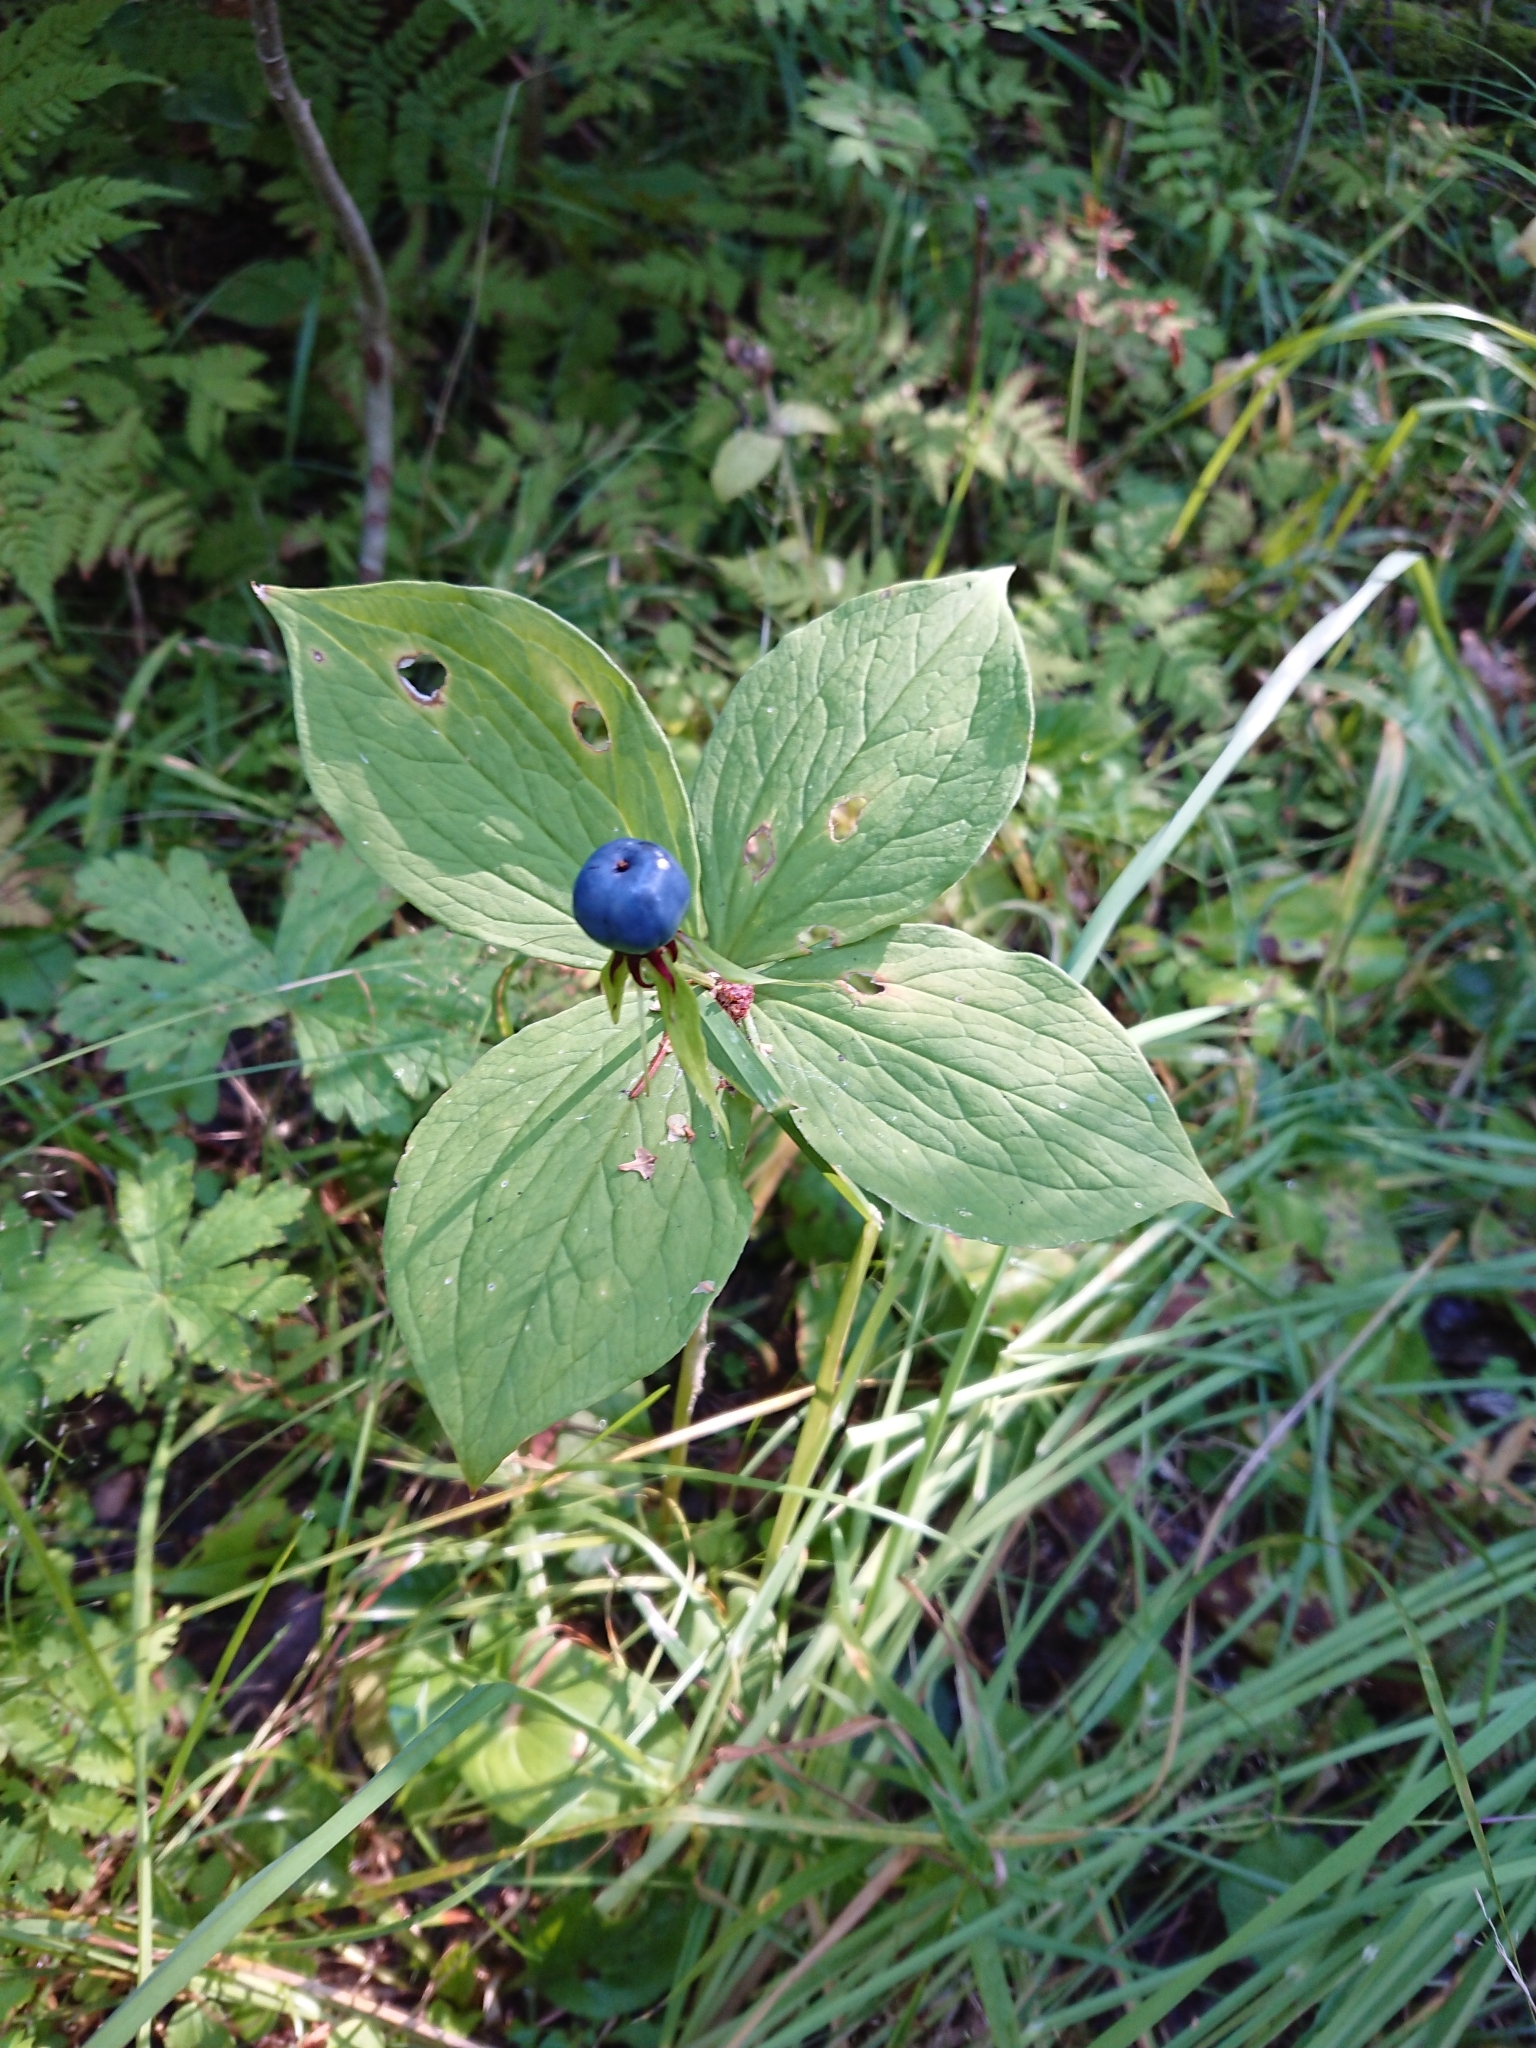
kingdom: Plantae
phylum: Tracheophyta
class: Liliopsida
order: Liliales
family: Melanthiaceae
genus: Paris
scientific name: Paris quadrifolia
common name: Herb-paris
